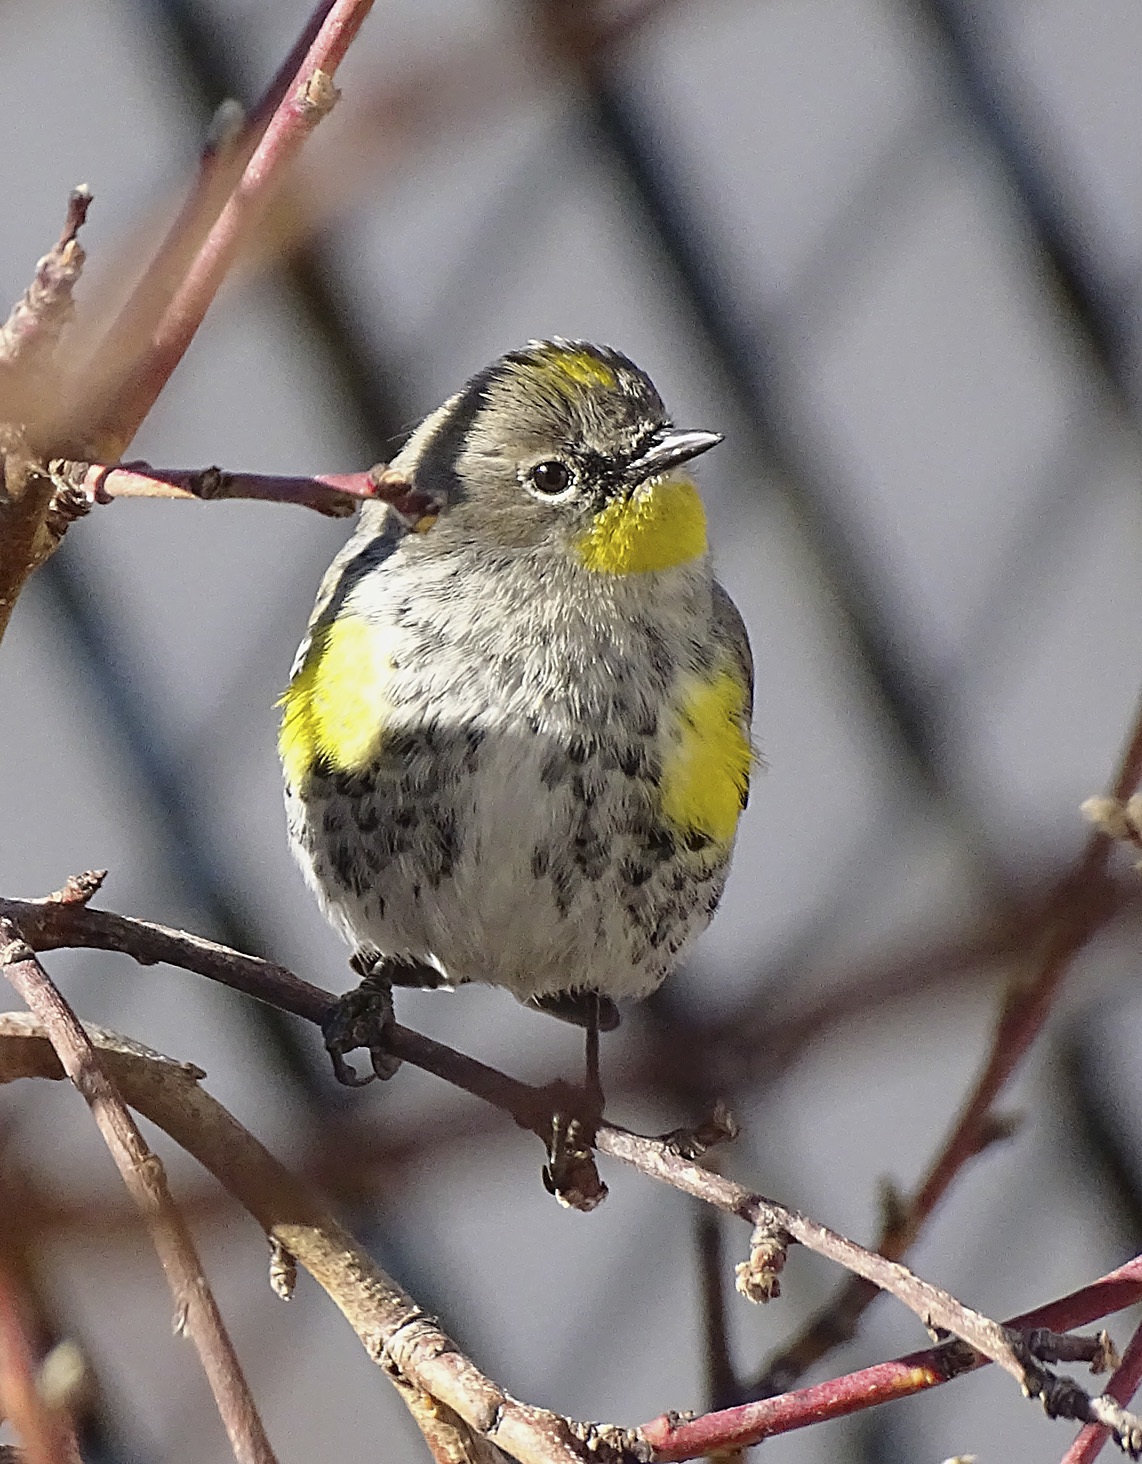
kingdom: Animalia
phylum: Chordata
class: Aves
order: Passeriformes
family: Parulidae
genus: Setophaga
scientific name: Setophaga coronata
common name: Myrtle warbler
